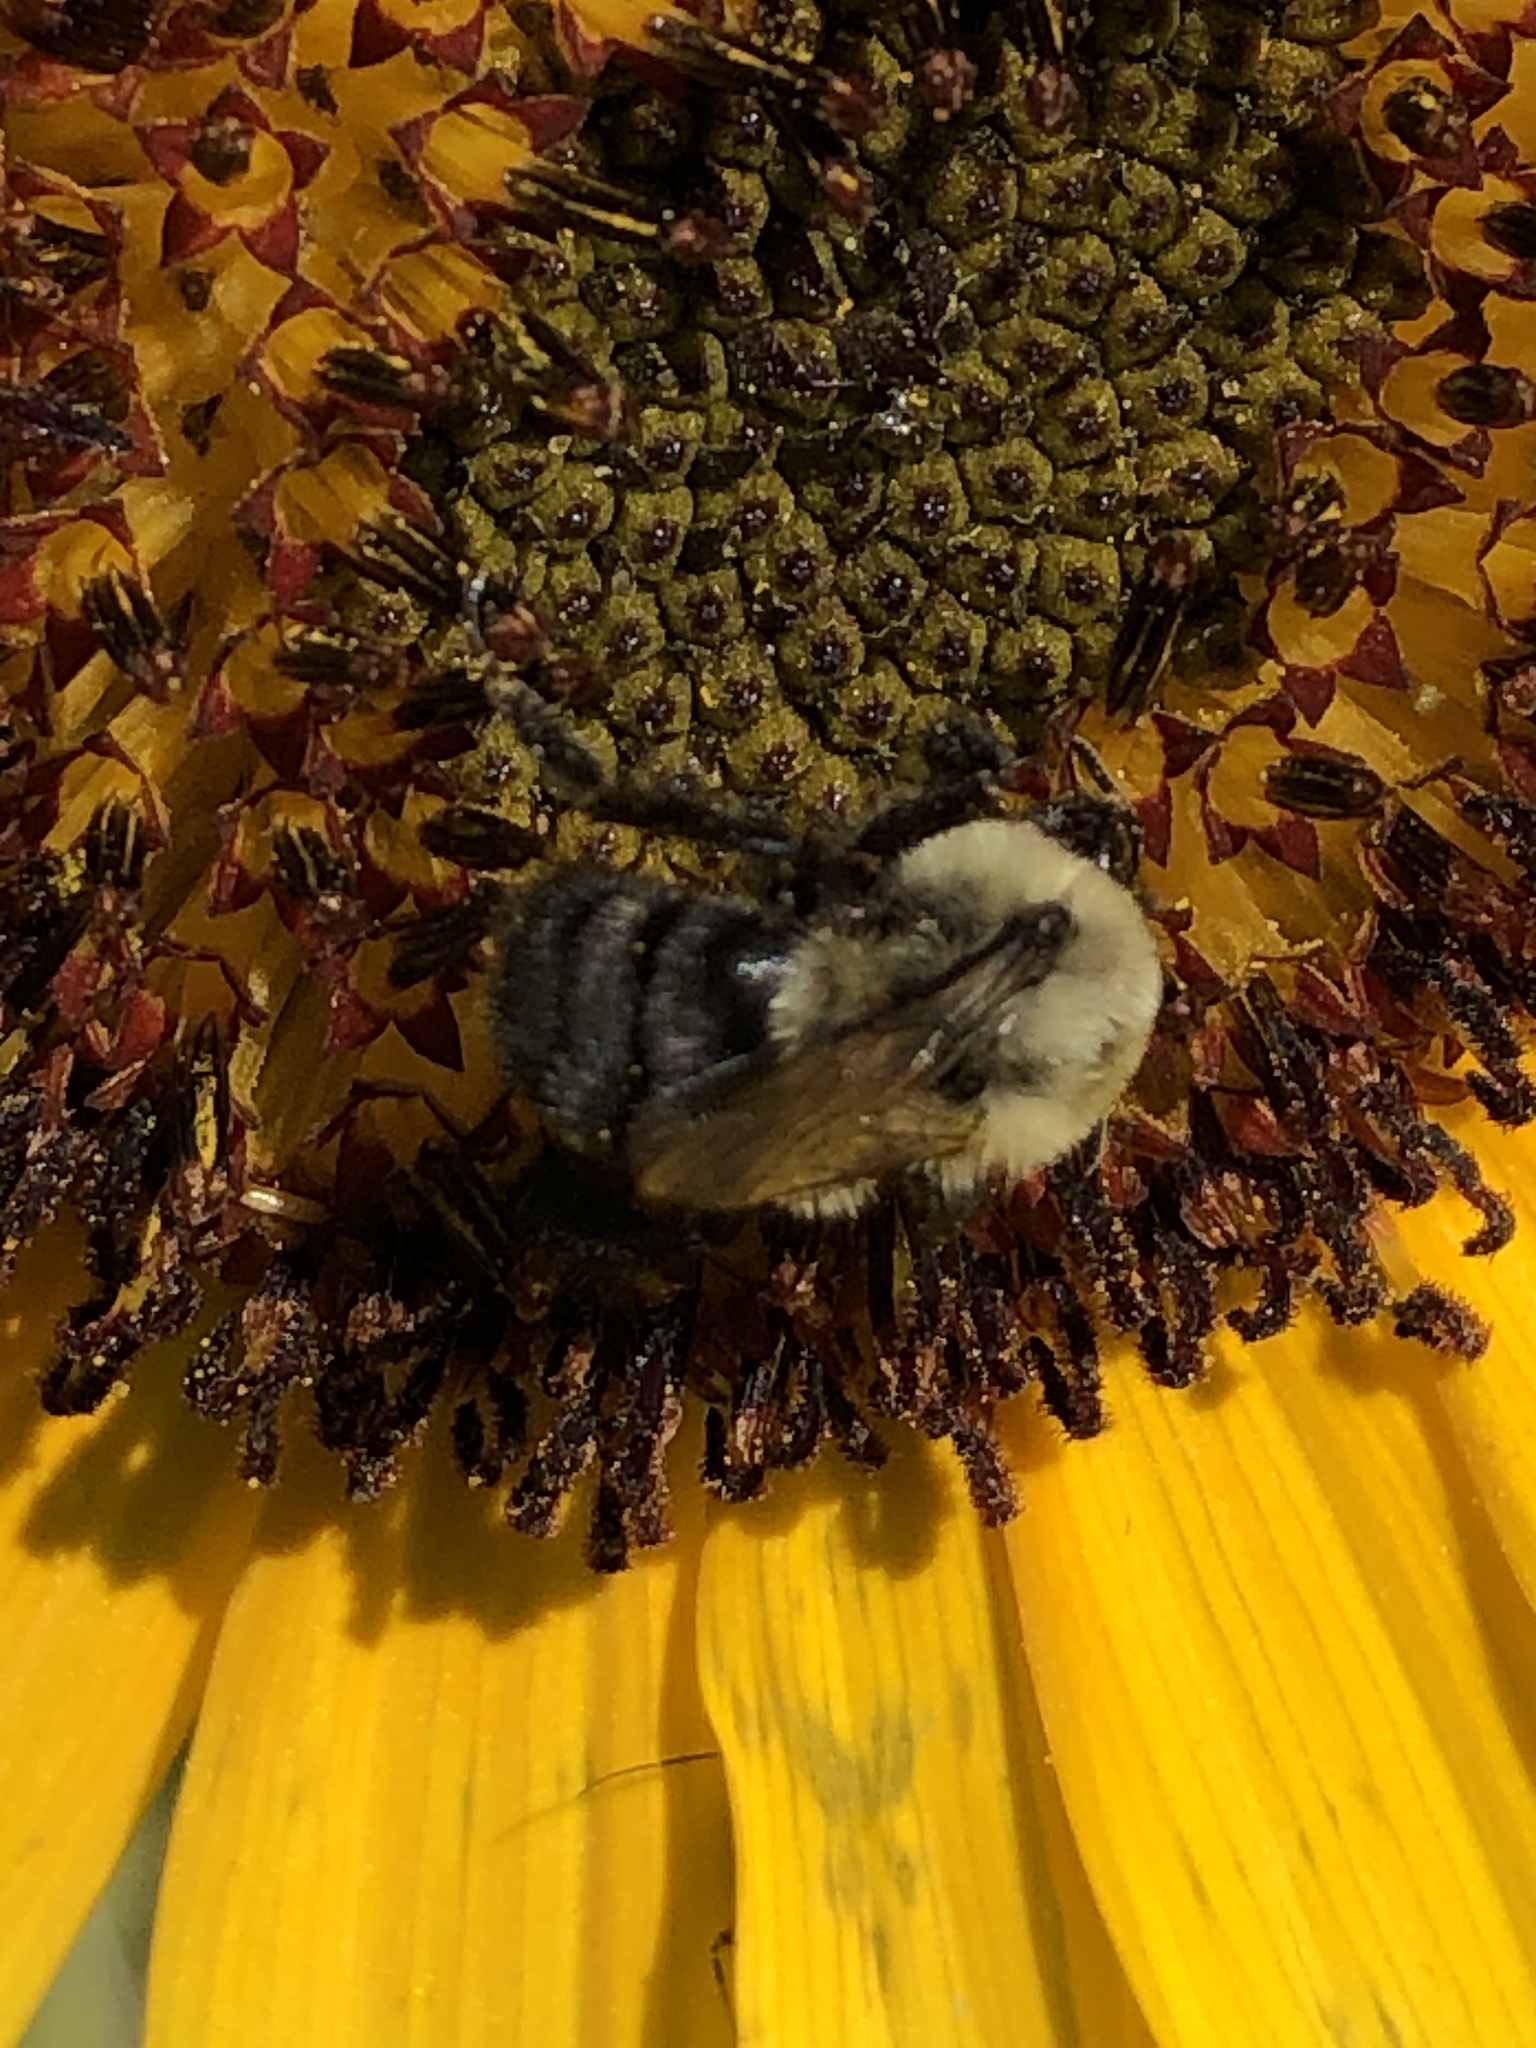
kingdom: Animalia
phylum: Arthropoda
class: Insecta
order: Hymenoptera
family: Apidae
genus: Bombus
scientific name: Bombus impatiens
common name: Common eastern bumble bee
